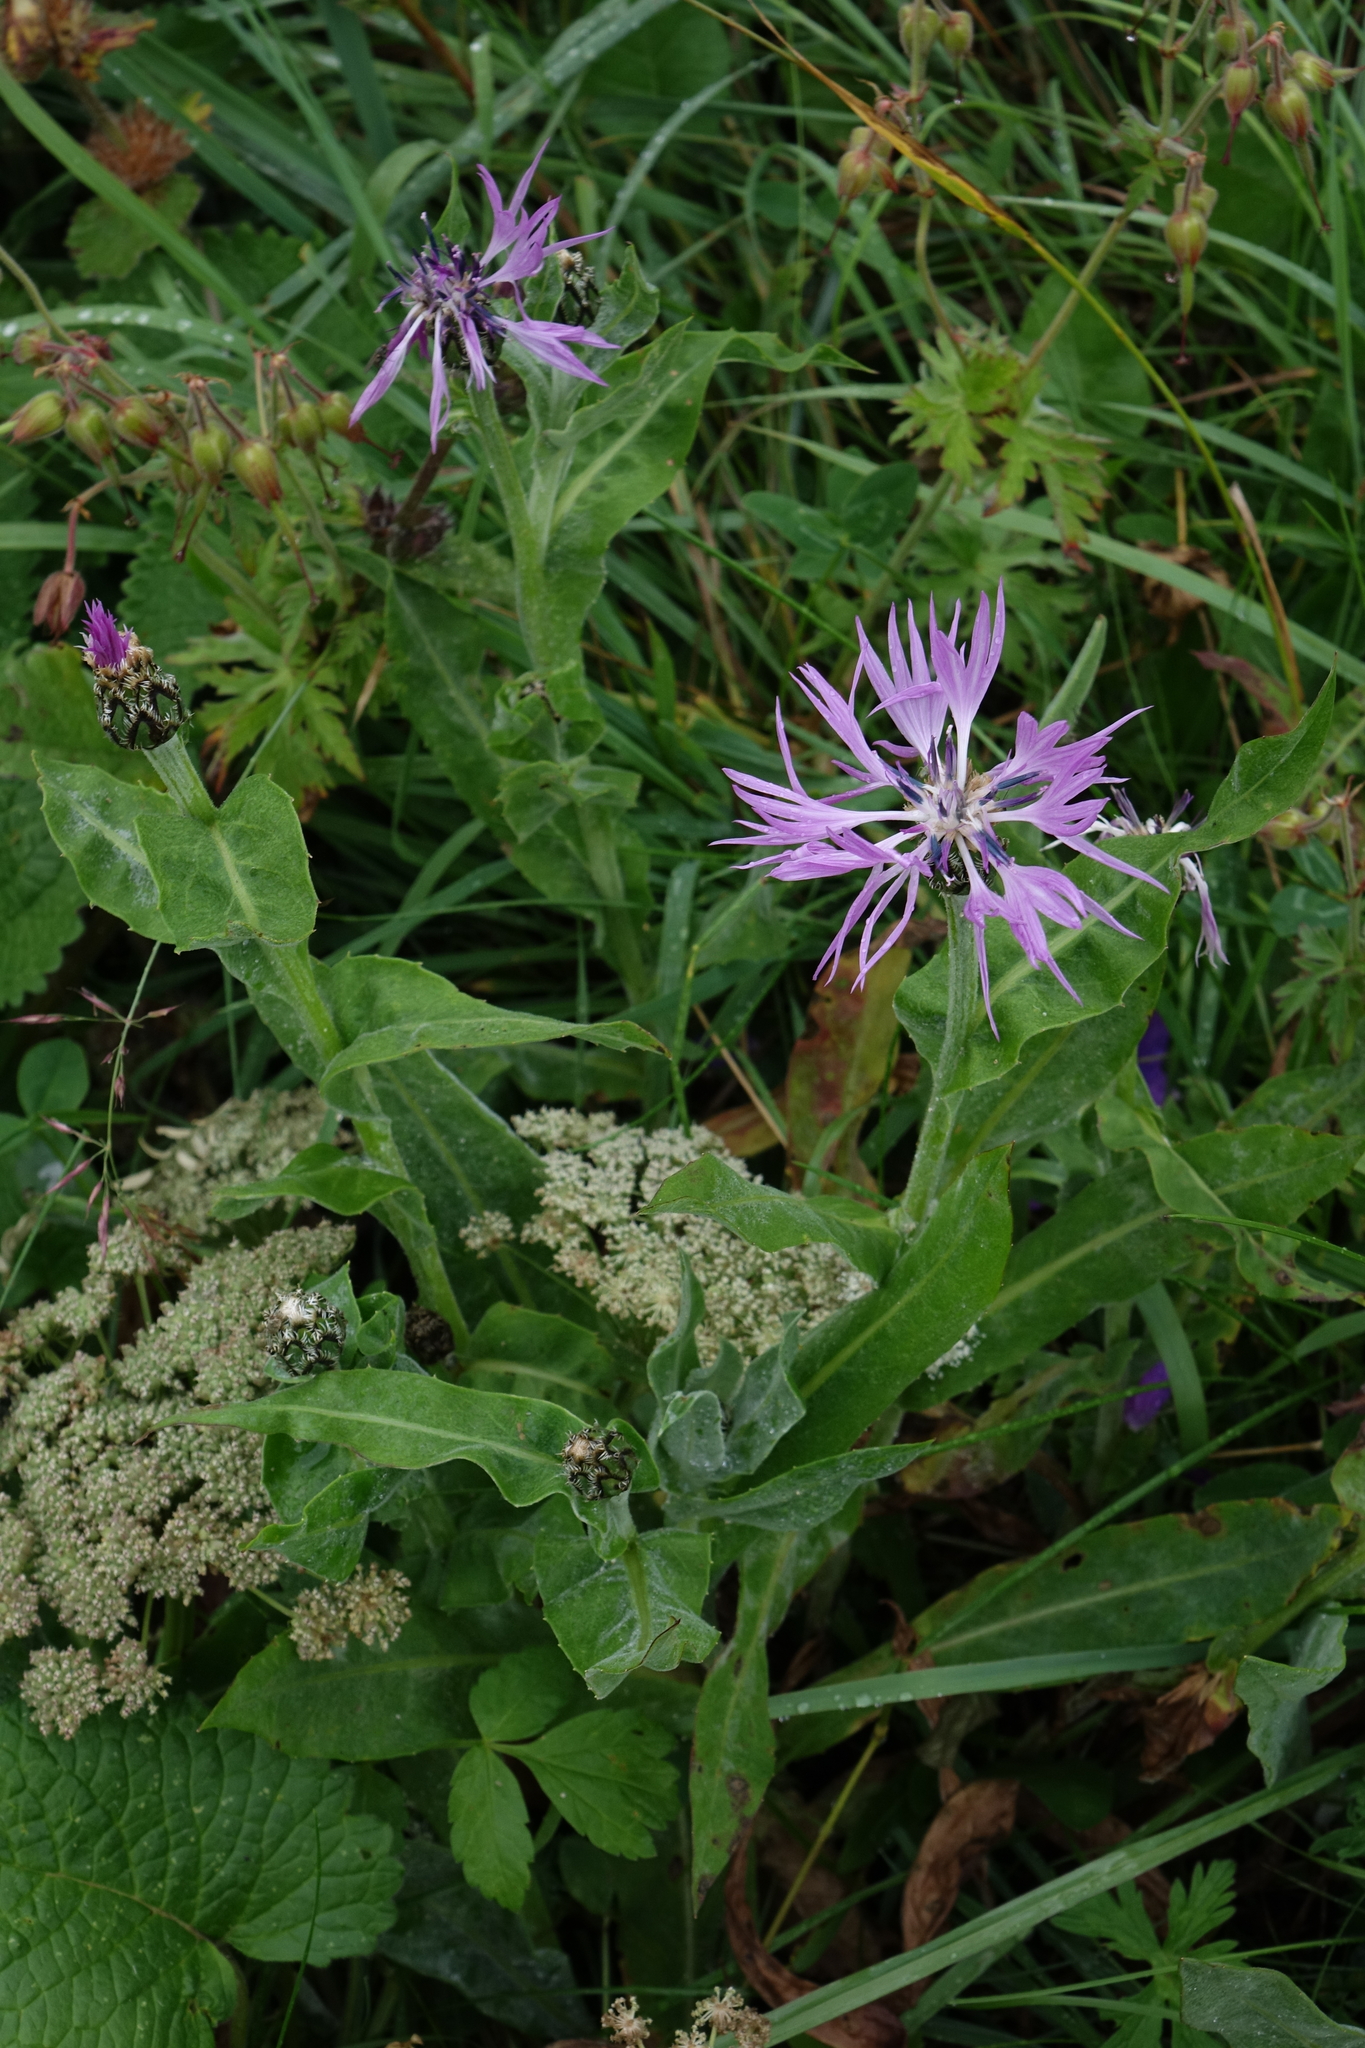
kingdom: Plantae
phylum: Tracheophyta
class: Magnoliopsida
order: Asterales
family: Asteraceae
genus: Centaurea
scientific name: Centaurea cheiranthifolia
